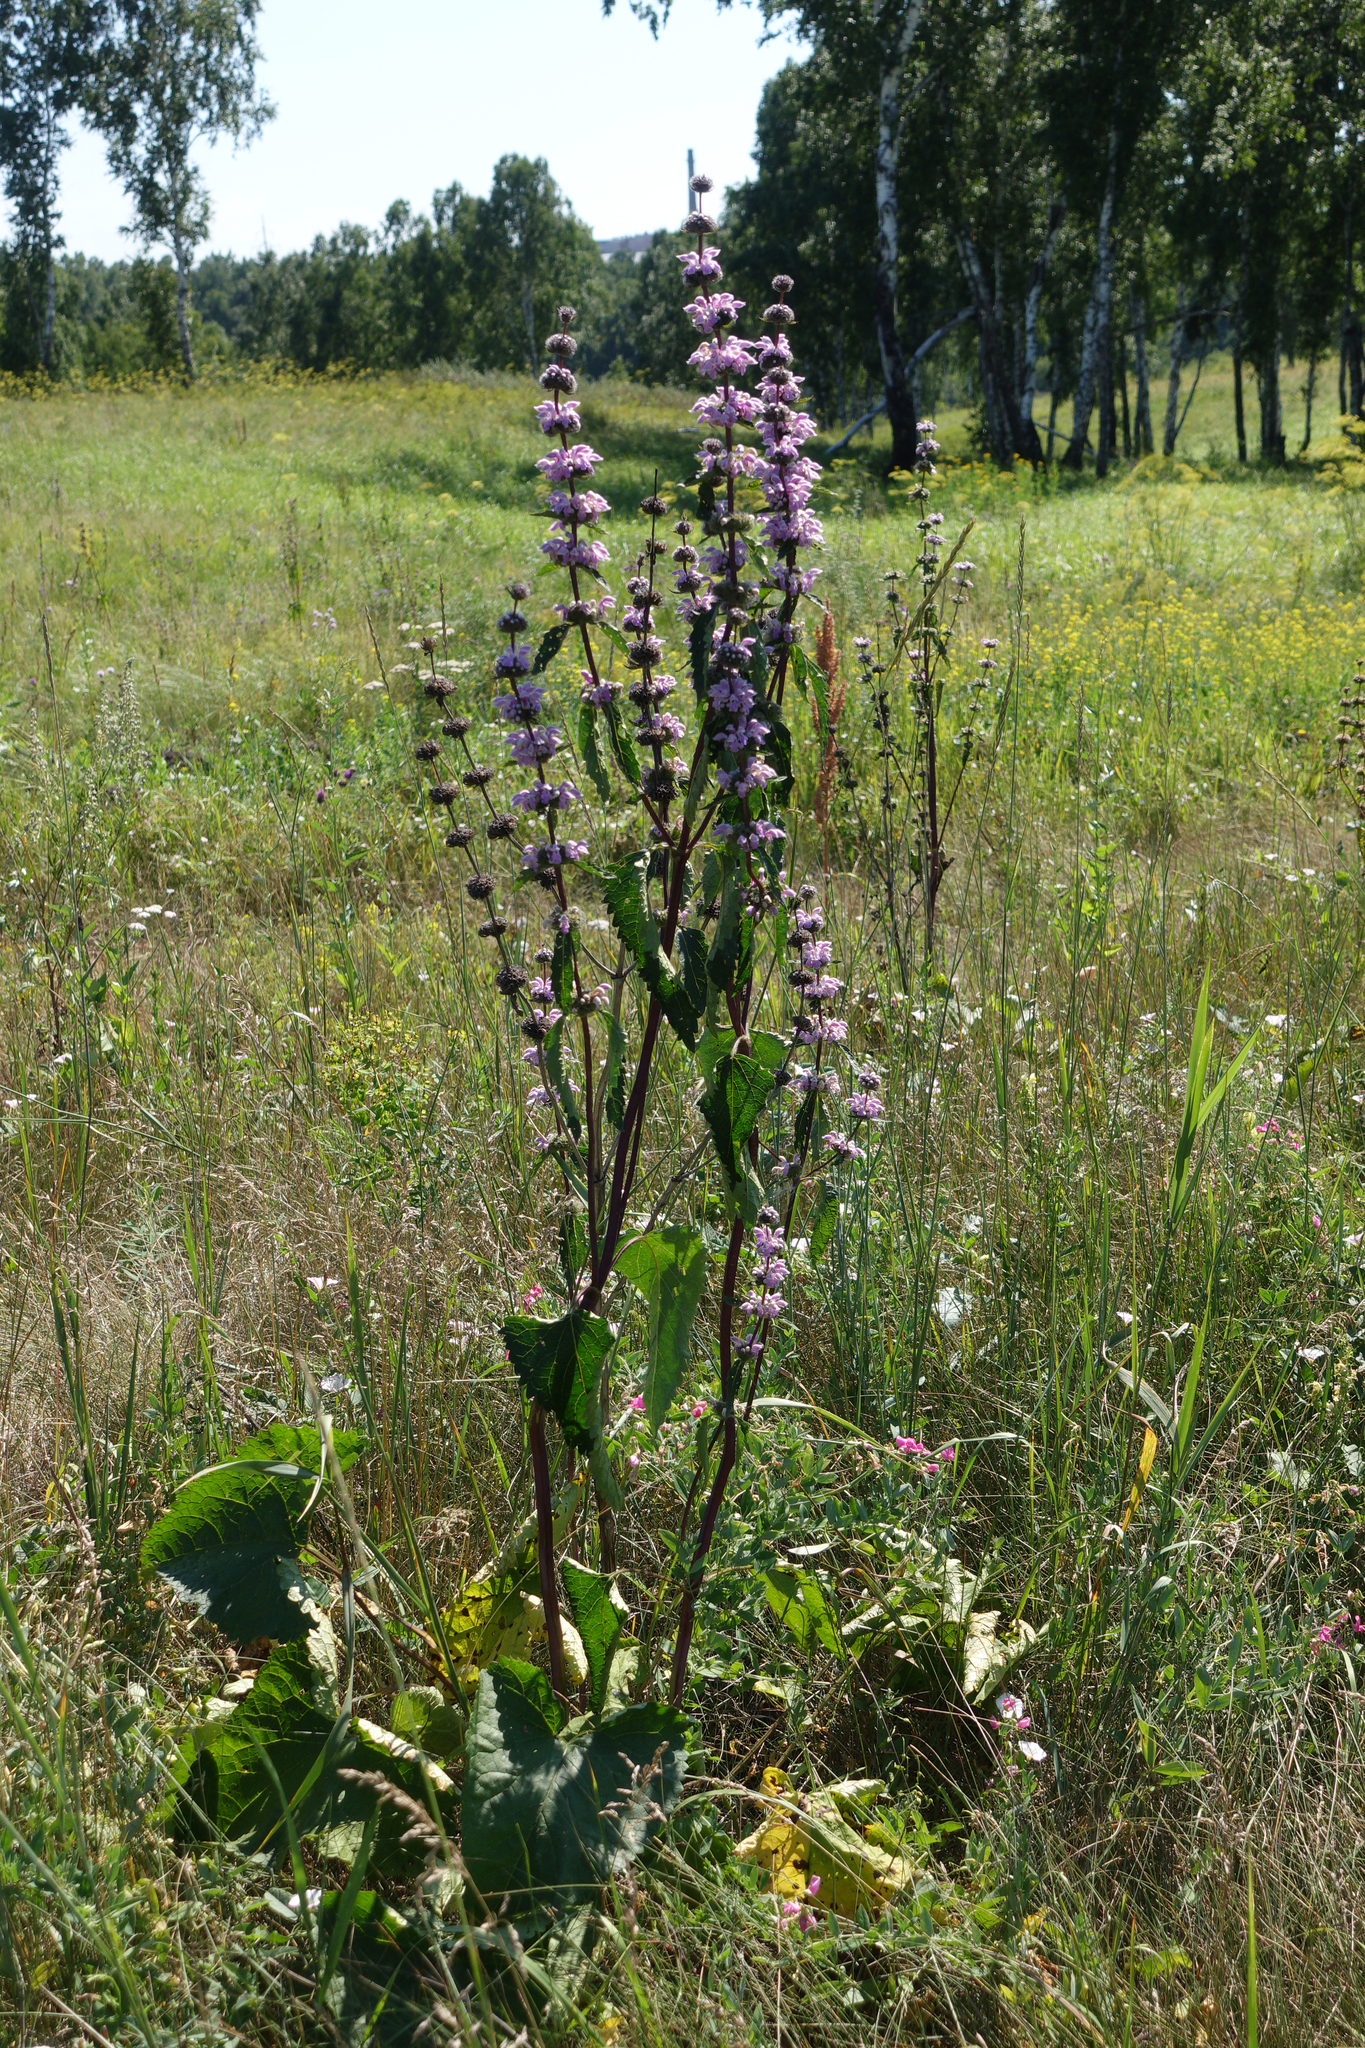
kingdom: Plantae
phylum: Tracheophyta
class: Magnoliopsida
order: Lamiales
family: Lamiaceae
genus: Phlomoides
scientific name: Phlomoides tuberosa
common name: Tuberous jerusalem sage
